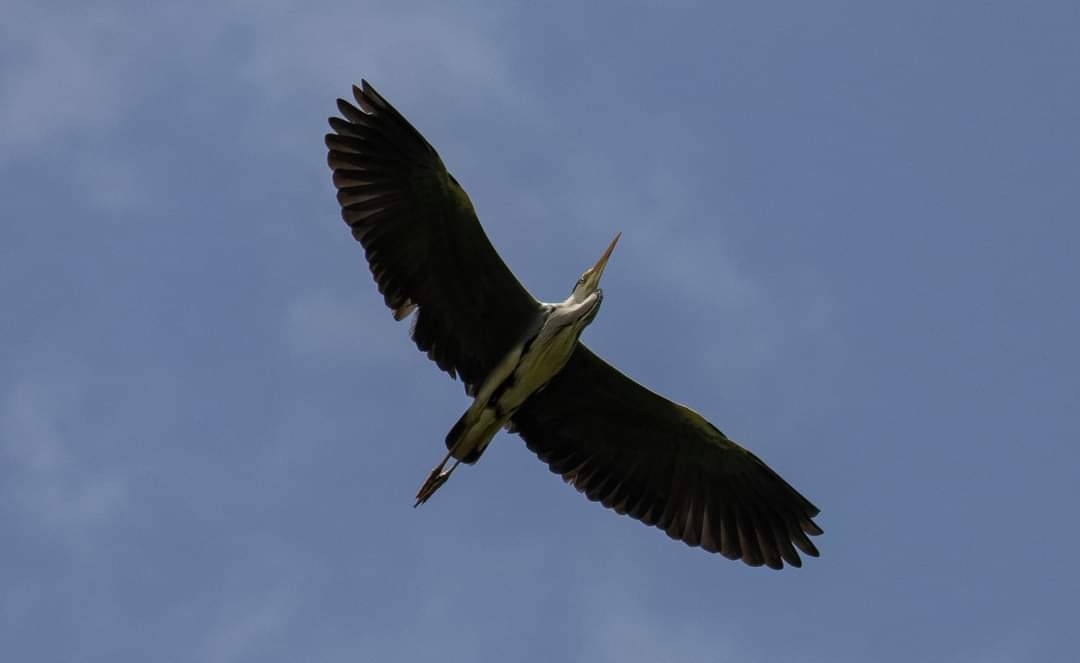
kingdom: Animalia
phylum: Chordata
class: Aves
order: Pelecaniformes
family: Ardeidae
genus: Ardea
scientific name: Ardea cinerea
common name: Grey heron
